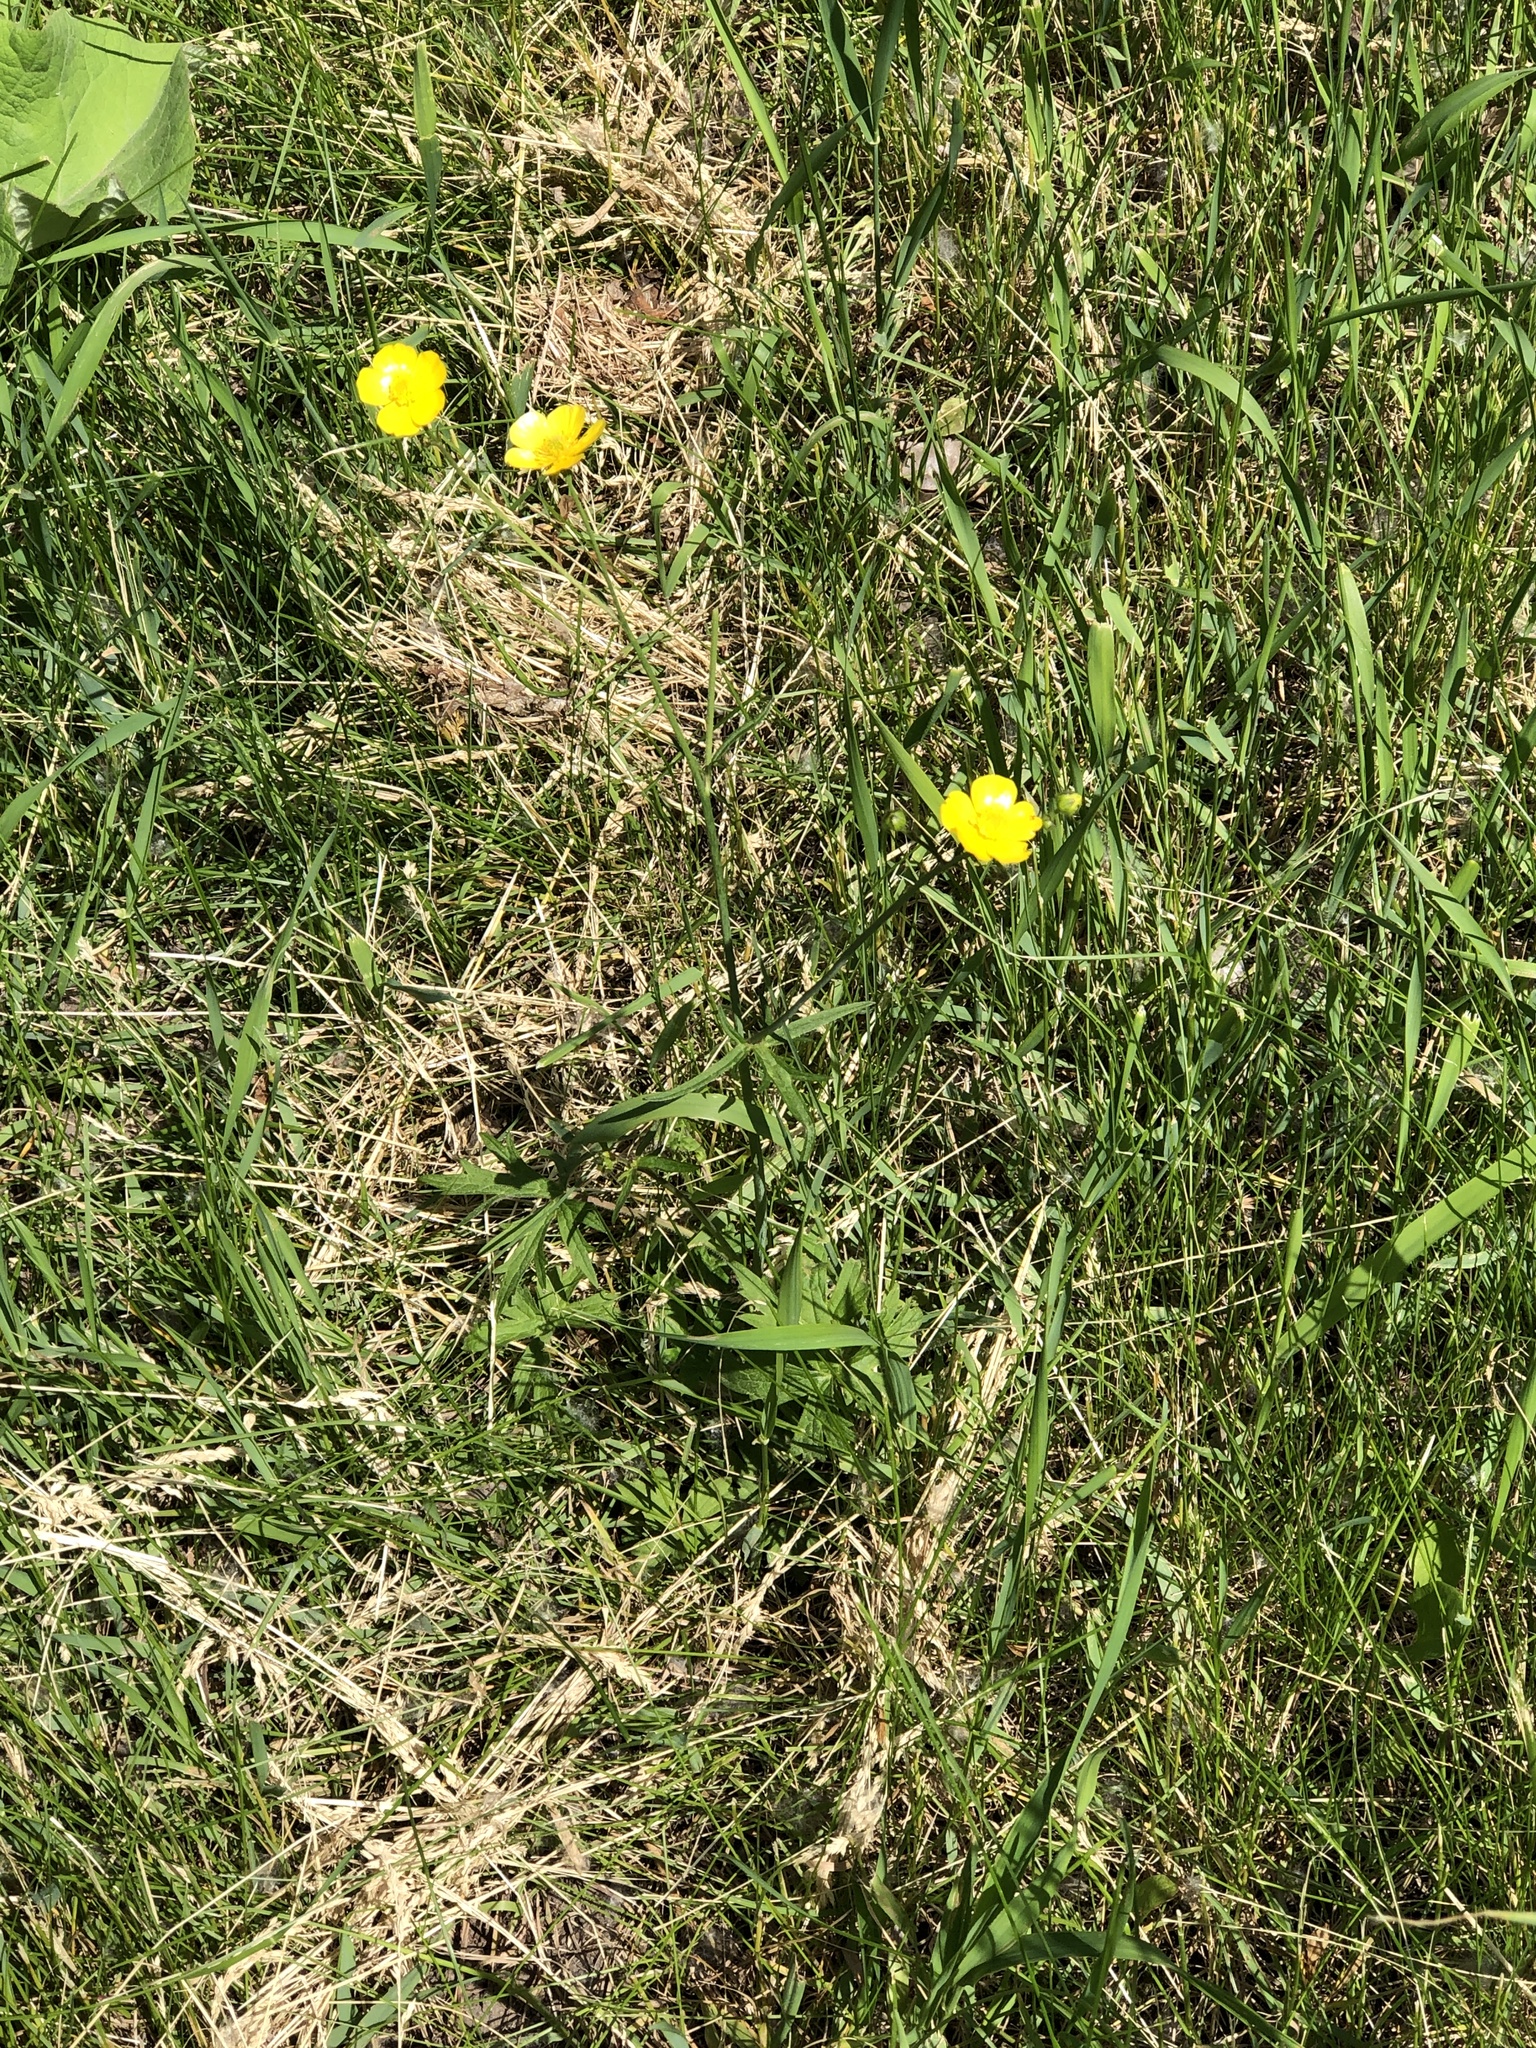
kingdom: Plantae
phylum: Tracheophyta
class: Magnoliopsida
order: Ranunculales
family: Ranunculaceae
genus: Ranunculus
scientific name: Ranunculus acris
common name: Meadow buttercup
